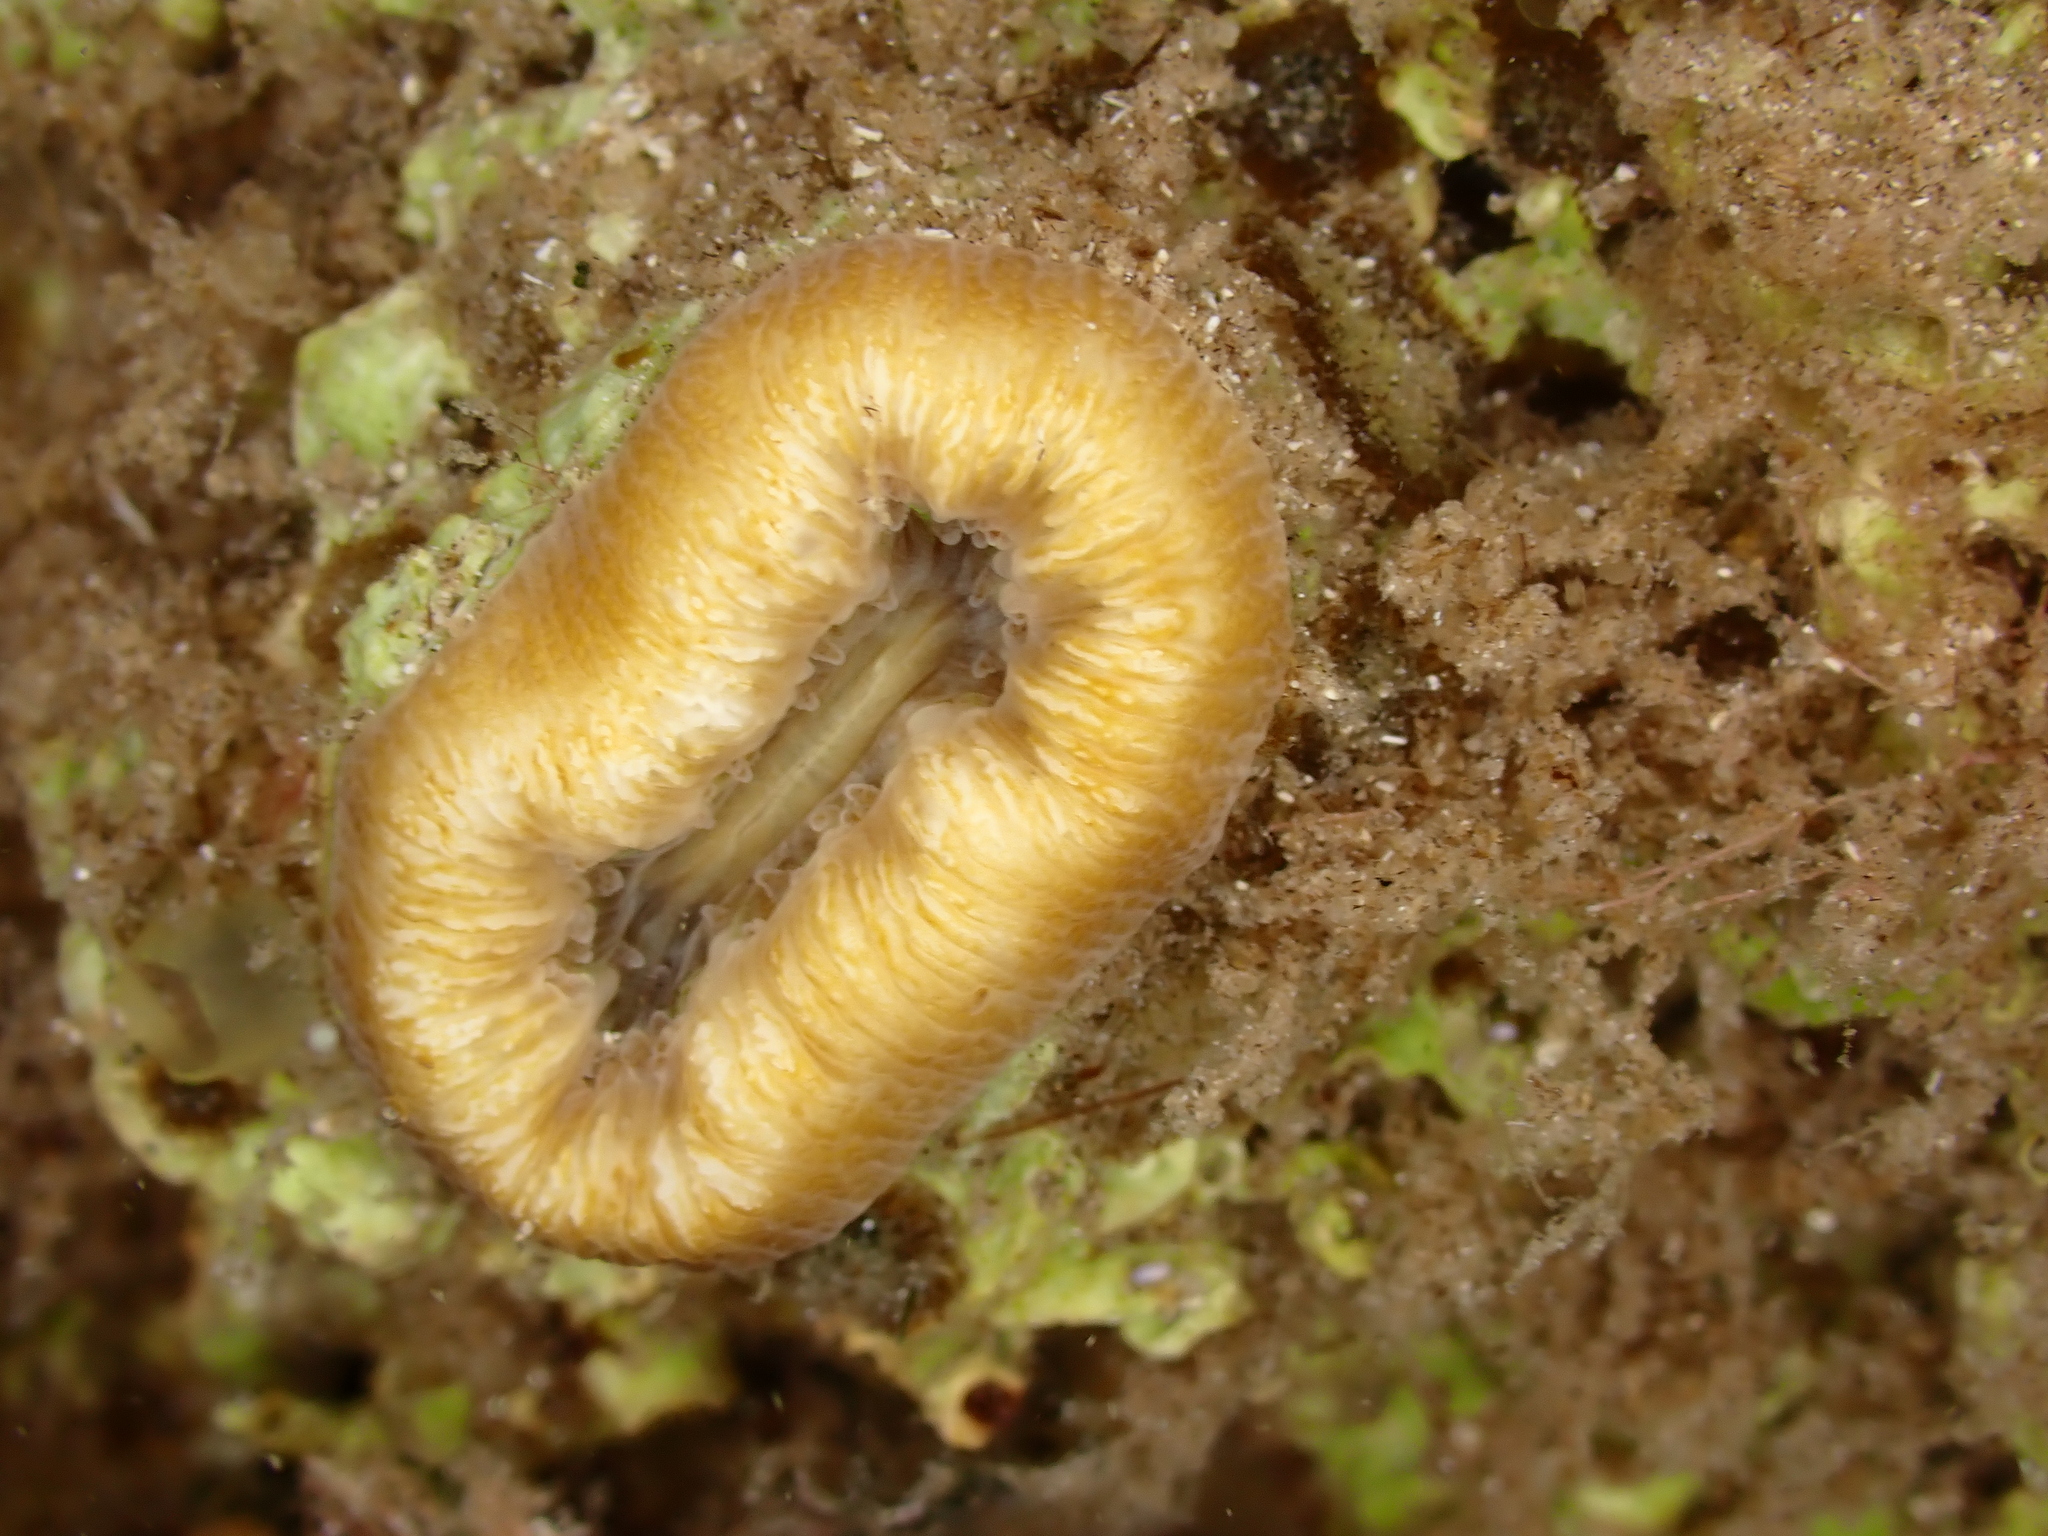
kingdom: Animalia
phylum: Cnidaria
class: Anthozoa
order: Scleractinia
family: Dendrophylliidae
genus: Balanophyllia
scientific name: Balanophyllia europaea
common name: Scarlet coral
